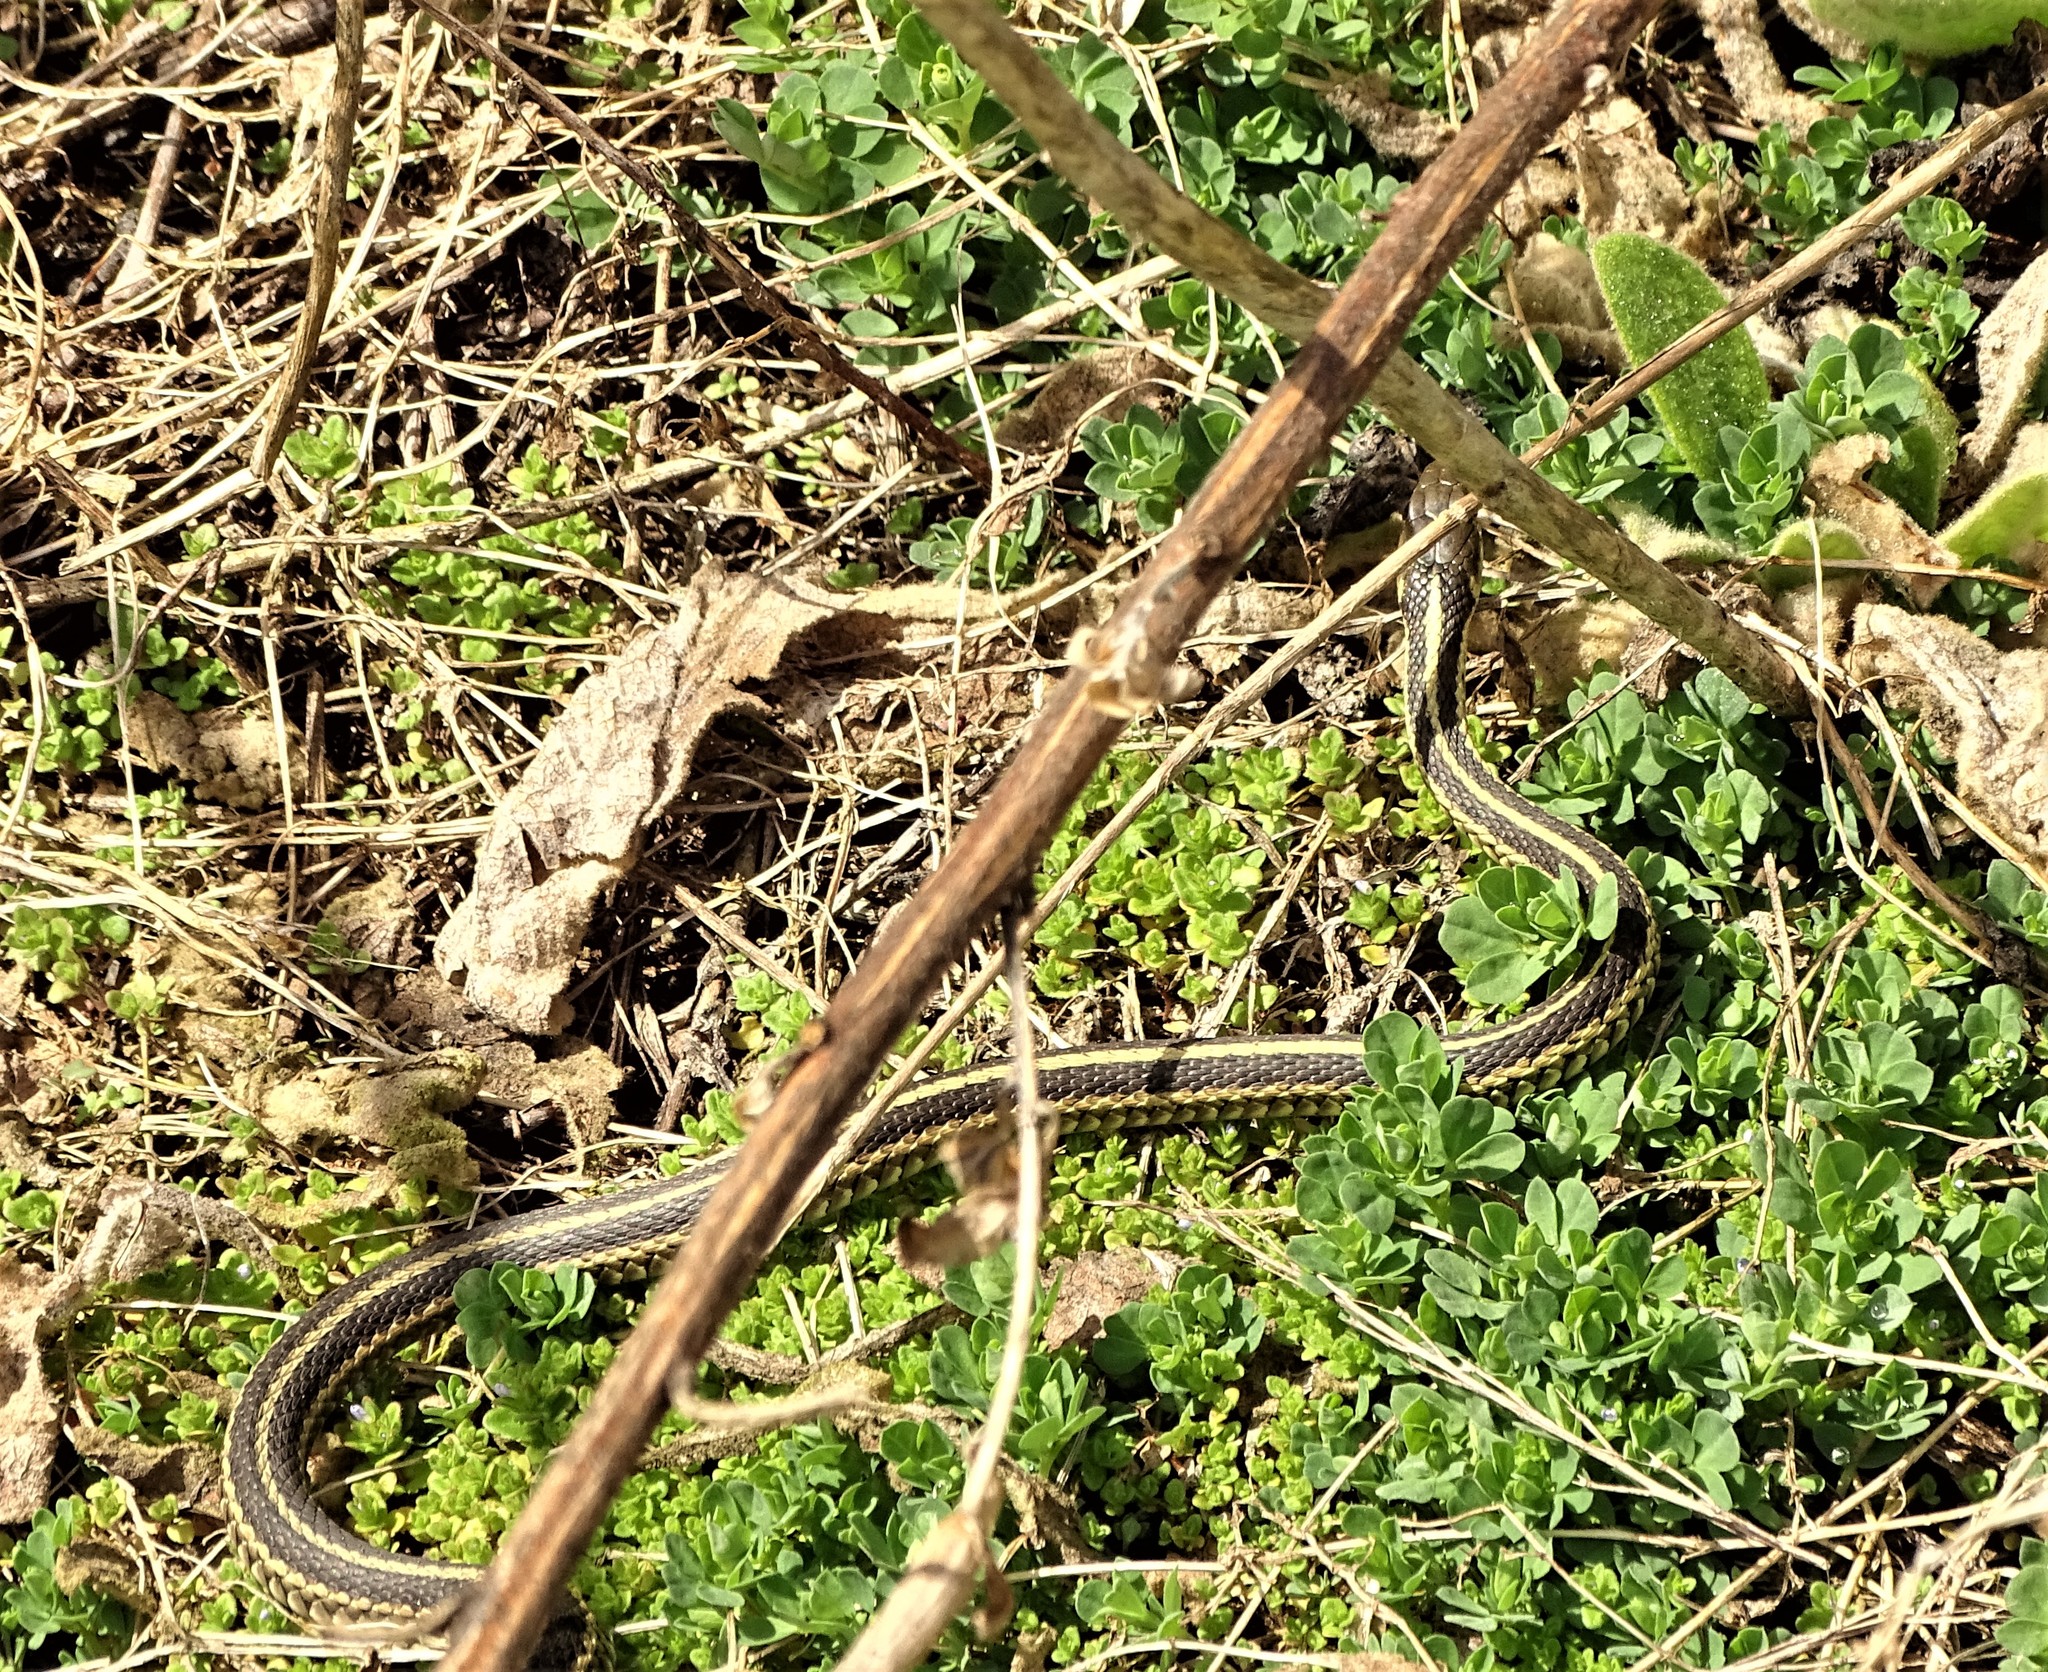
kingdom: Animalia
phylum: Chordata
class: Squamata
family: Colubridae
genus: Thamnophis
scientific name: Thamnophis sirtalis
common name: Common garter snake
